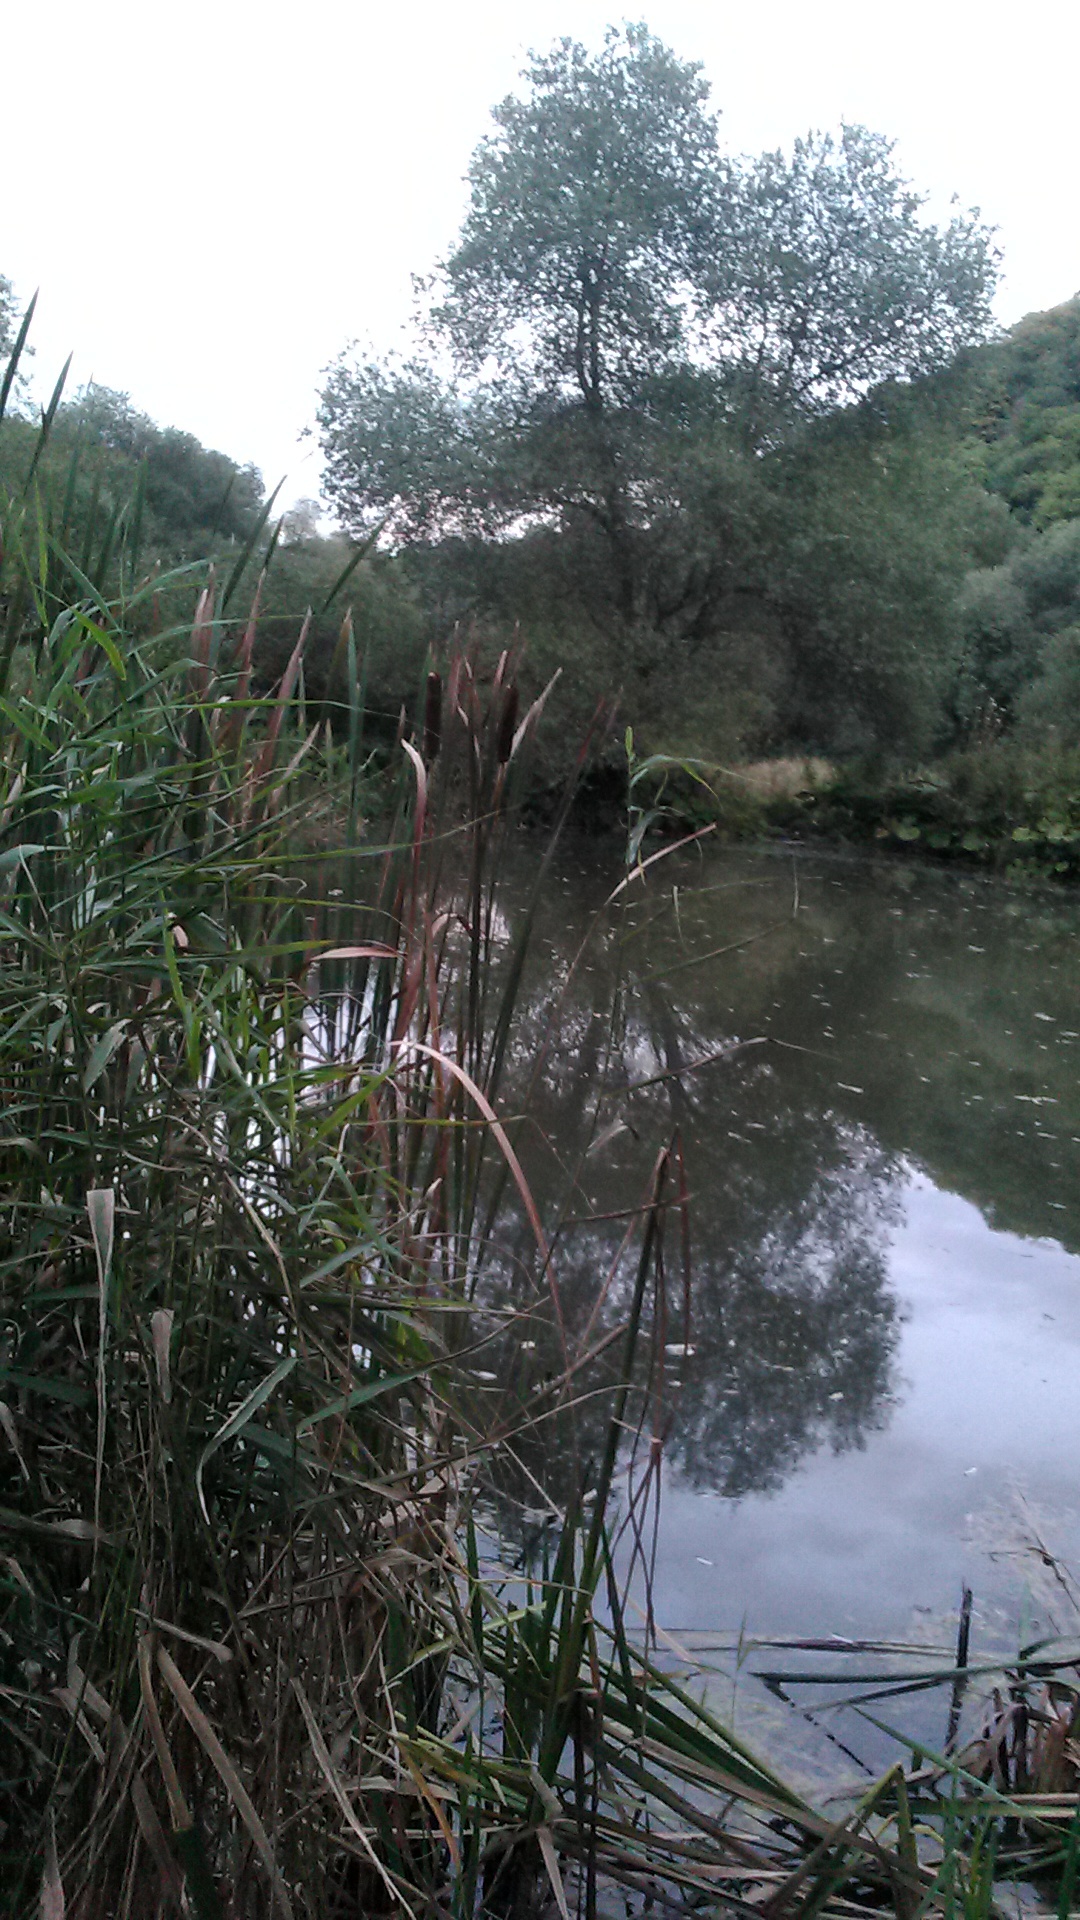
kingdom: Plantae
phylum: Tracheophyta
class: Liliopsida
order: Poales
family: Typhaceae
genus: Typha
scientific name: Typha latifolia
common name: Broadleaf cattail
